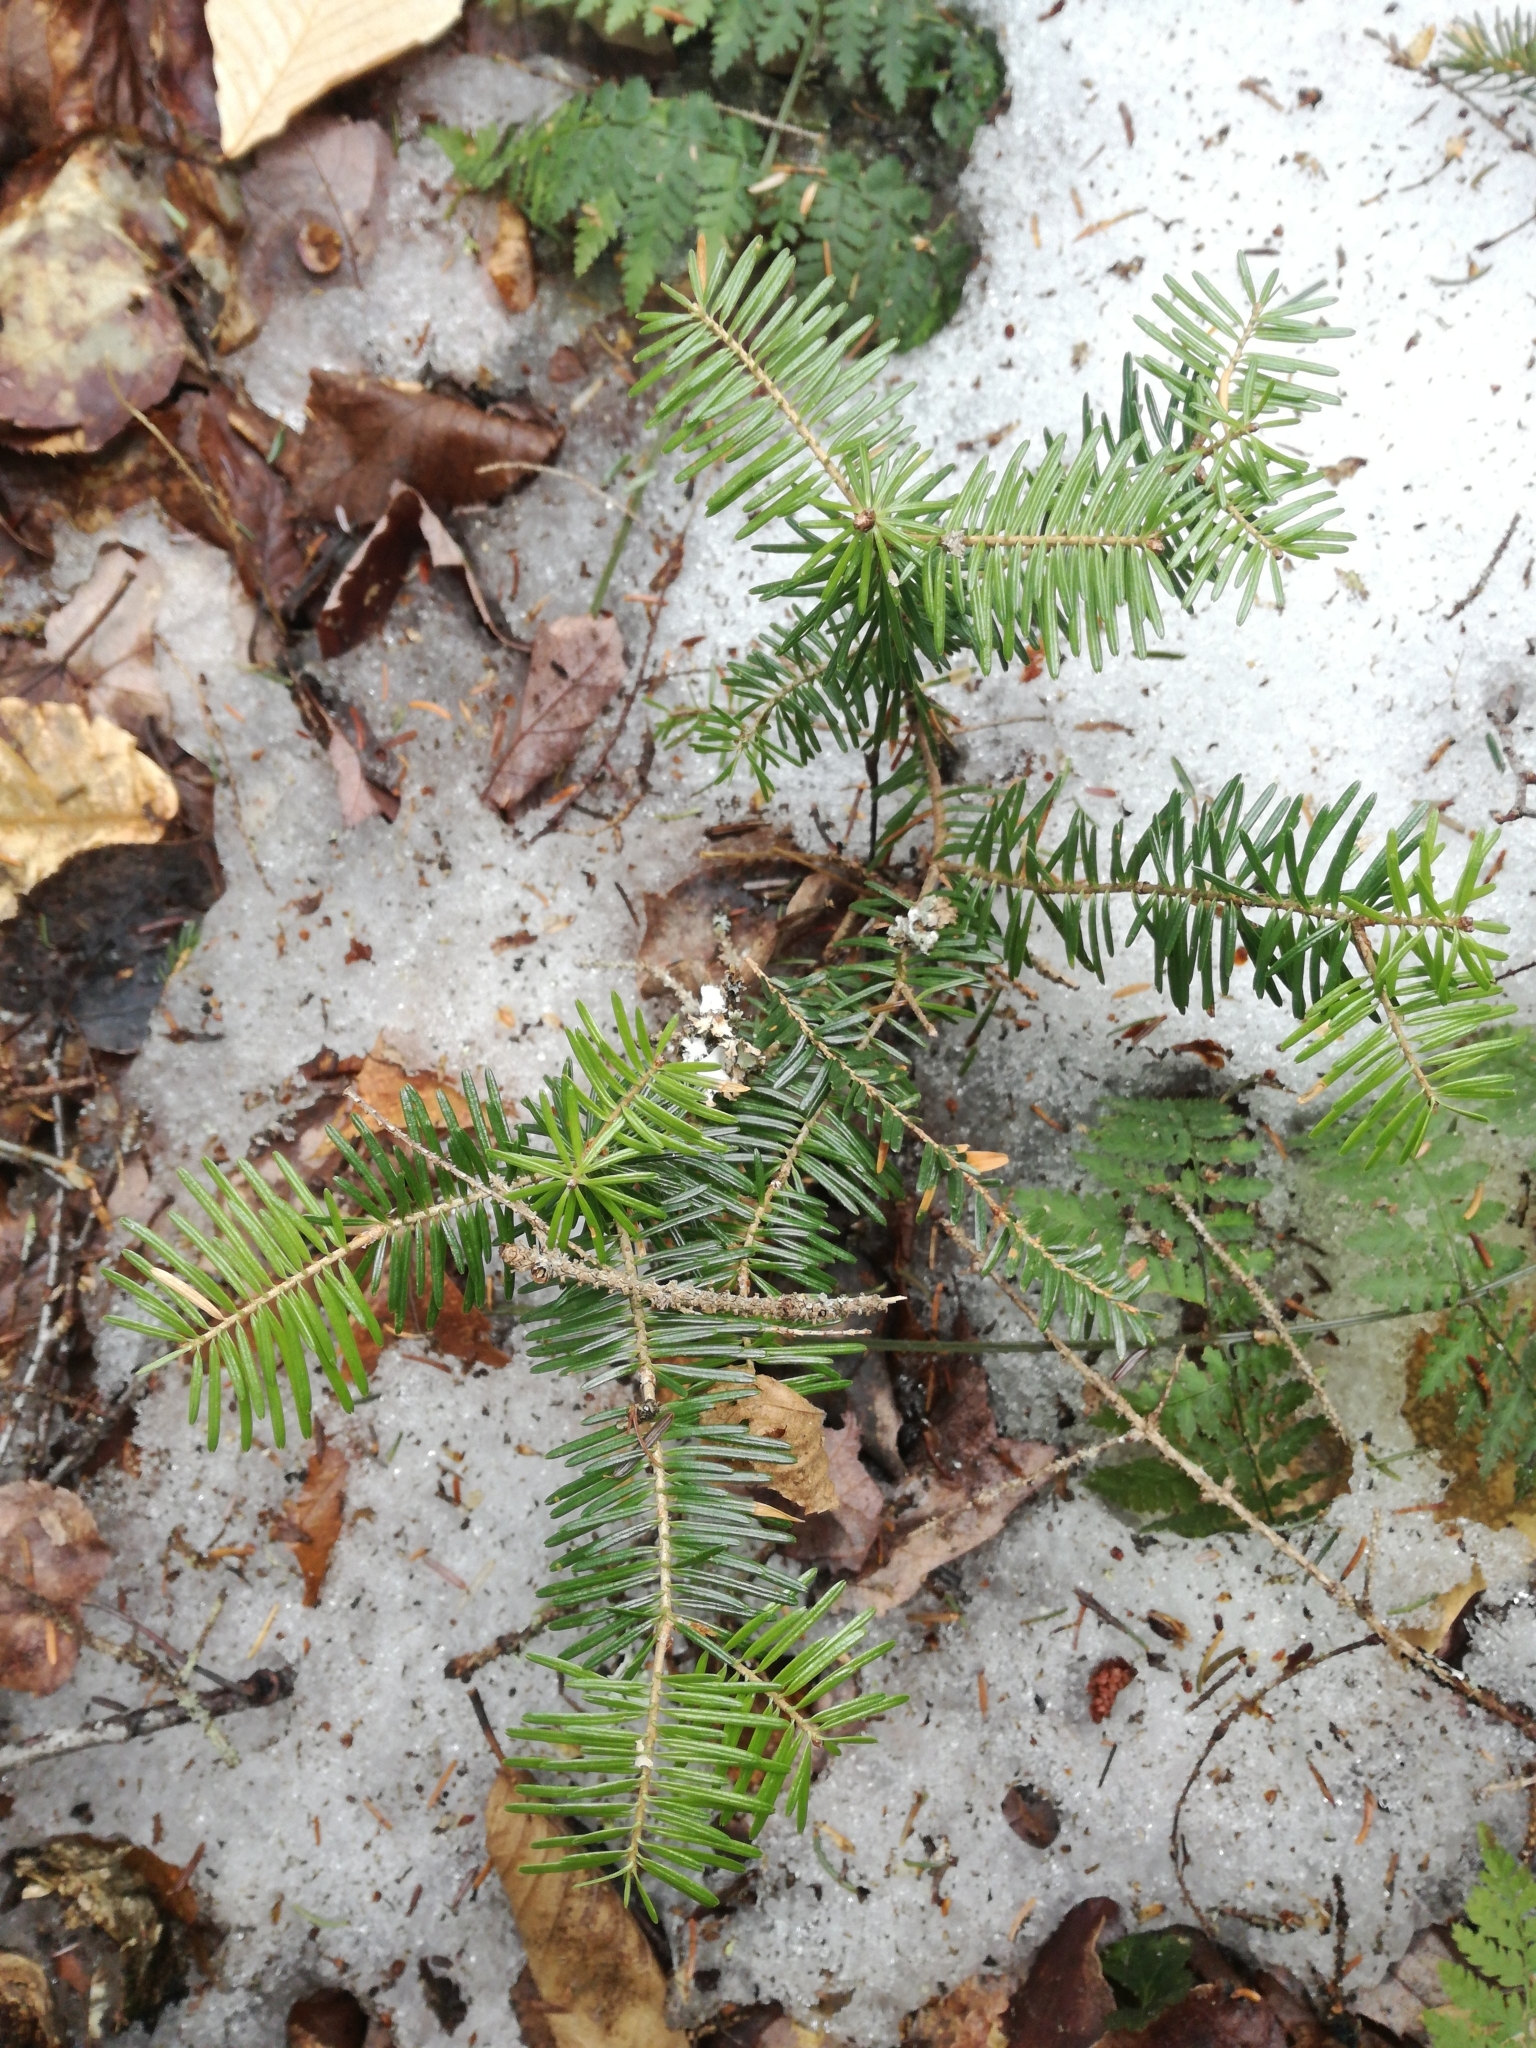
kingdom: Plantae
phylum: Tracheophyta
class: Pinopsida
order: Pinales
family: Pinaceae
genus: Abies
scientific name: Abies balsamea
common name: Balsam fir
